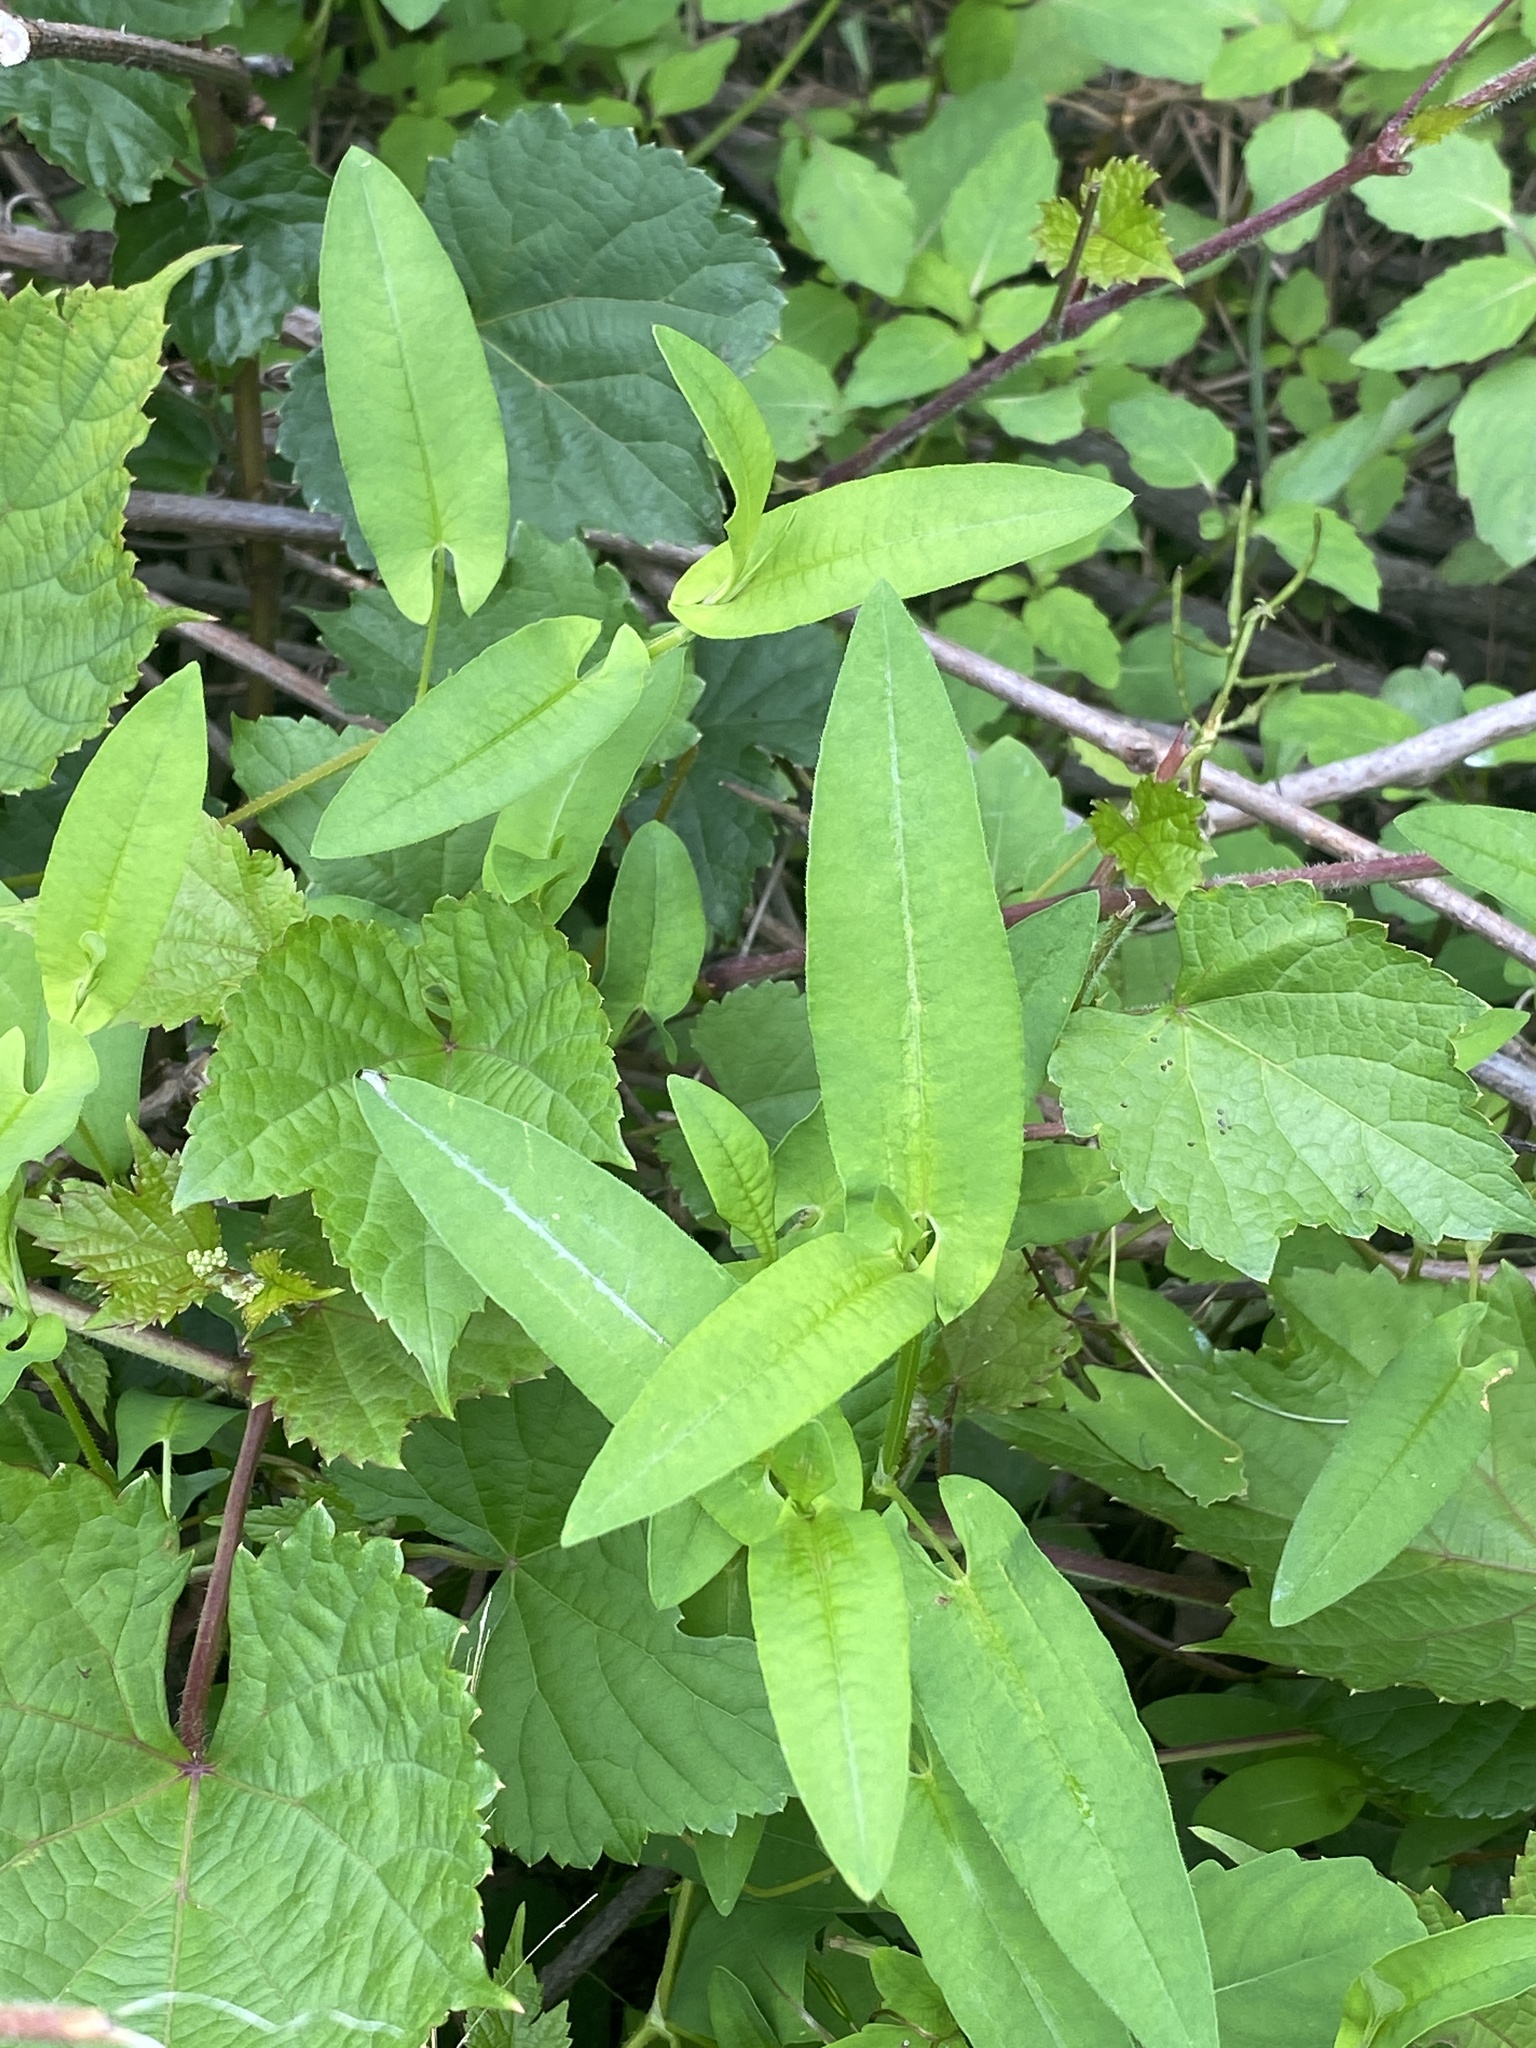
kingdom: Plantae
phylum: Tracheophyta
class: Magnoliopsida
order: Caryophyllales
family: Polygonaceae
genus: Persicaria
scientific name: Persicaria sagittata
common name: American tearthumb
